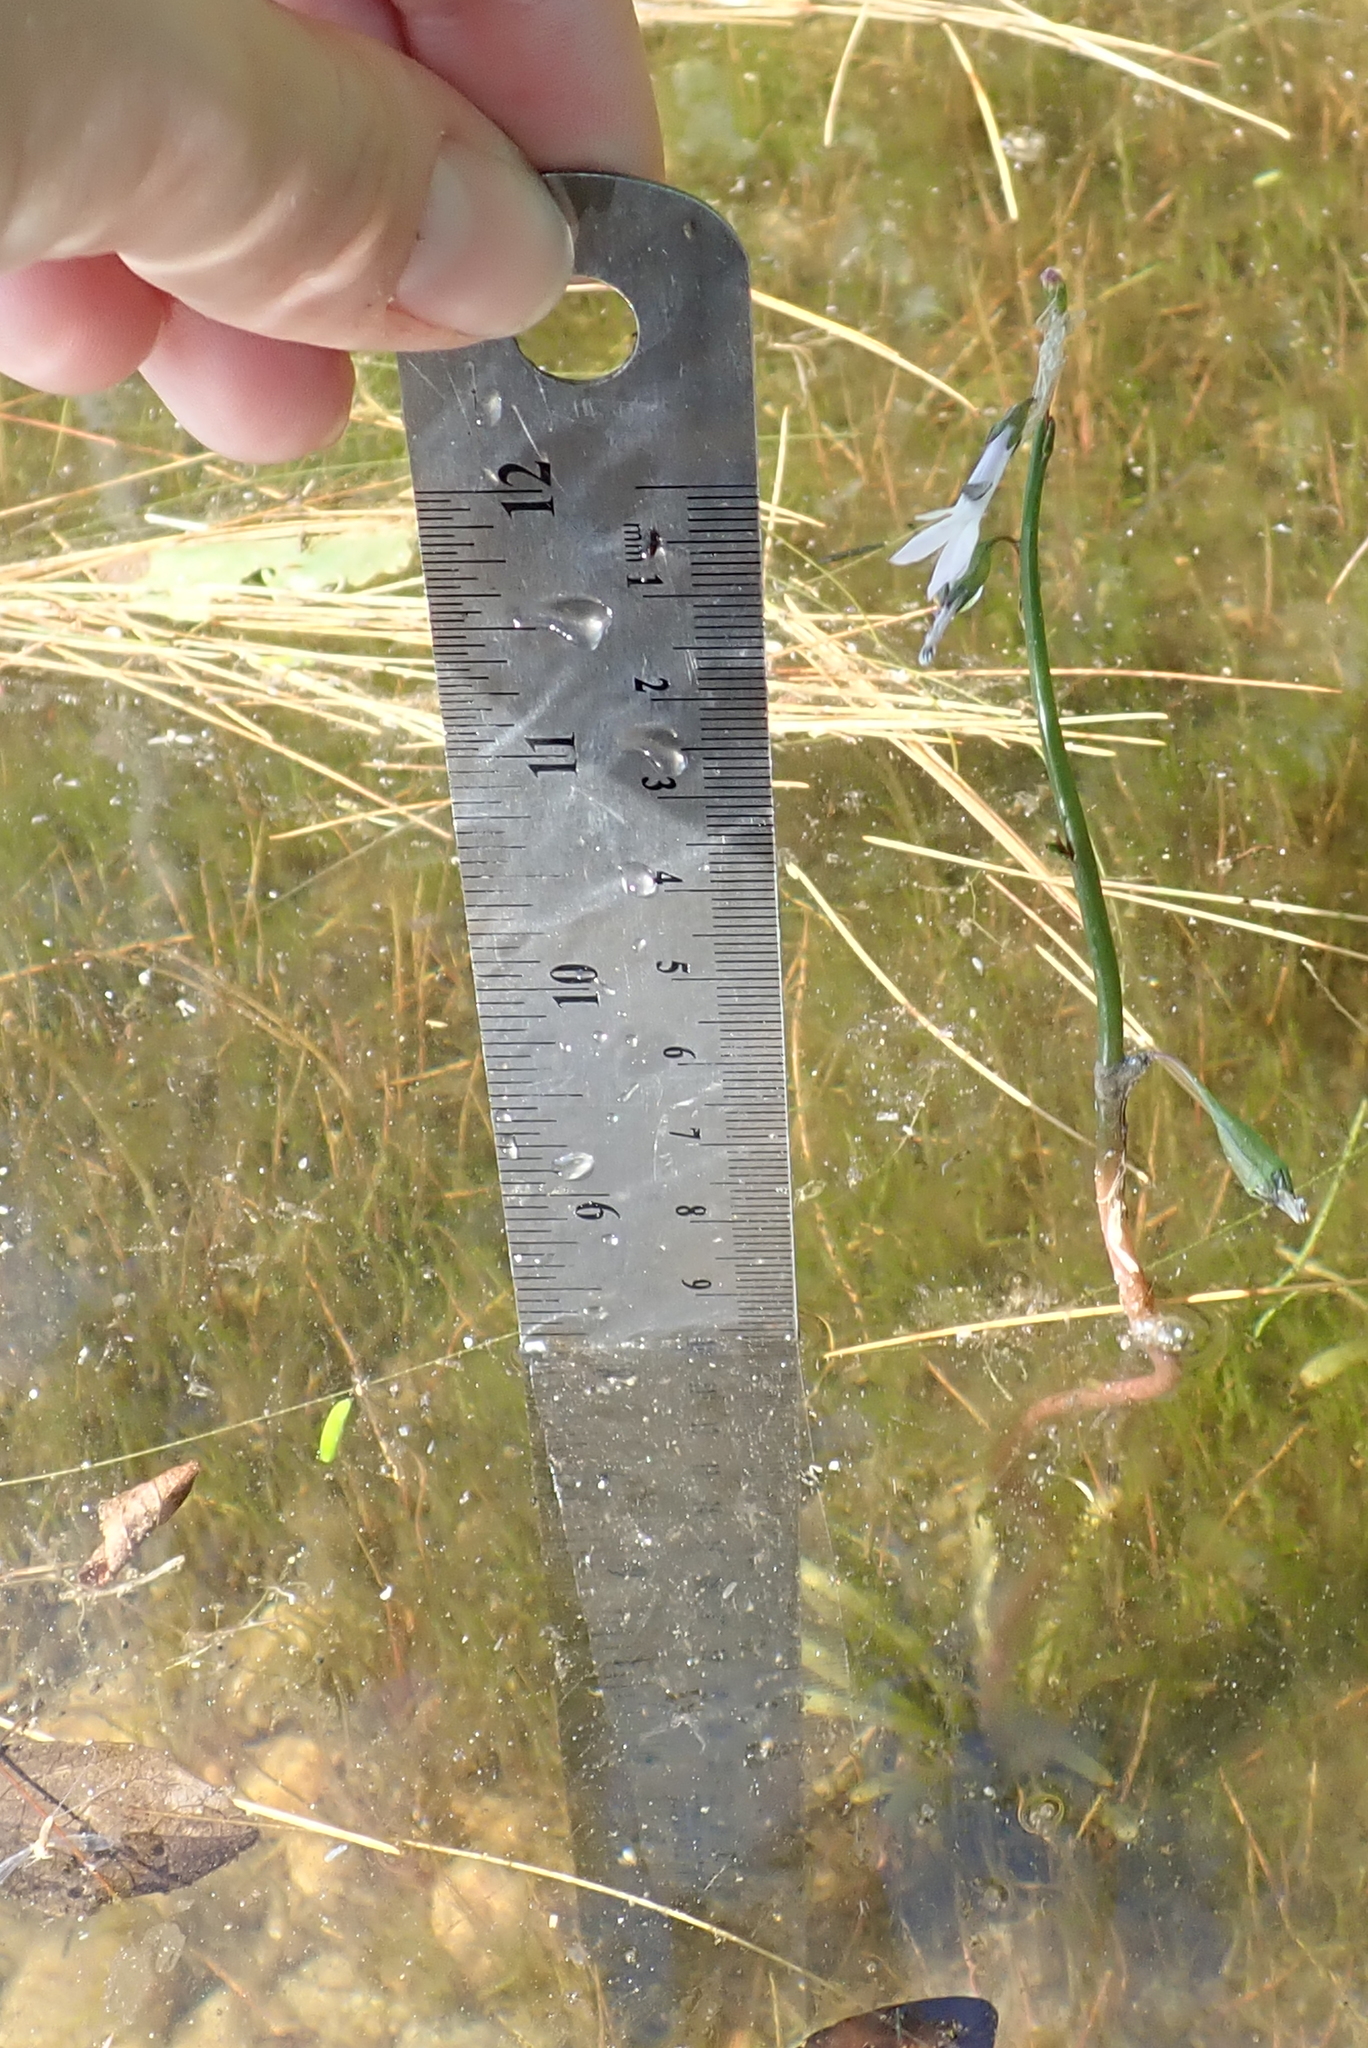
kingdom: Plantae
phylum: Tracheophyta
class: Magnoliopsida
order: Asterales
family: Campanulaceae
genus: Lobelia
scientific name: Lobelia dortmanna
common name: Water lobelia
